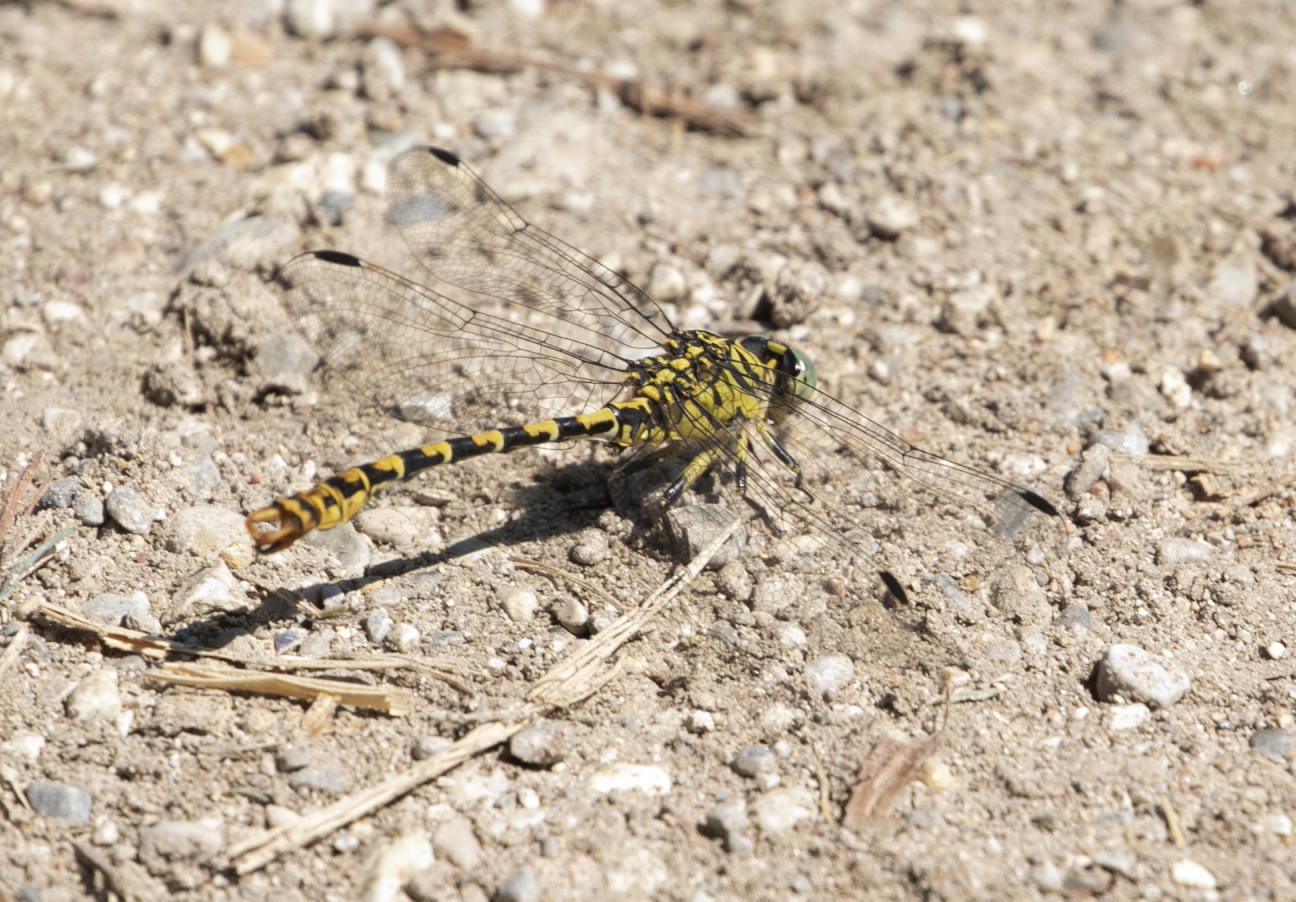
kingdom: Animalia
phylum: Arthropoda
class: Insecta
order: Odonata
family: Gomphidae
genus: Onychogomphus
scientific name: Onychogomphus forcipatus
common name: Small pincertail
